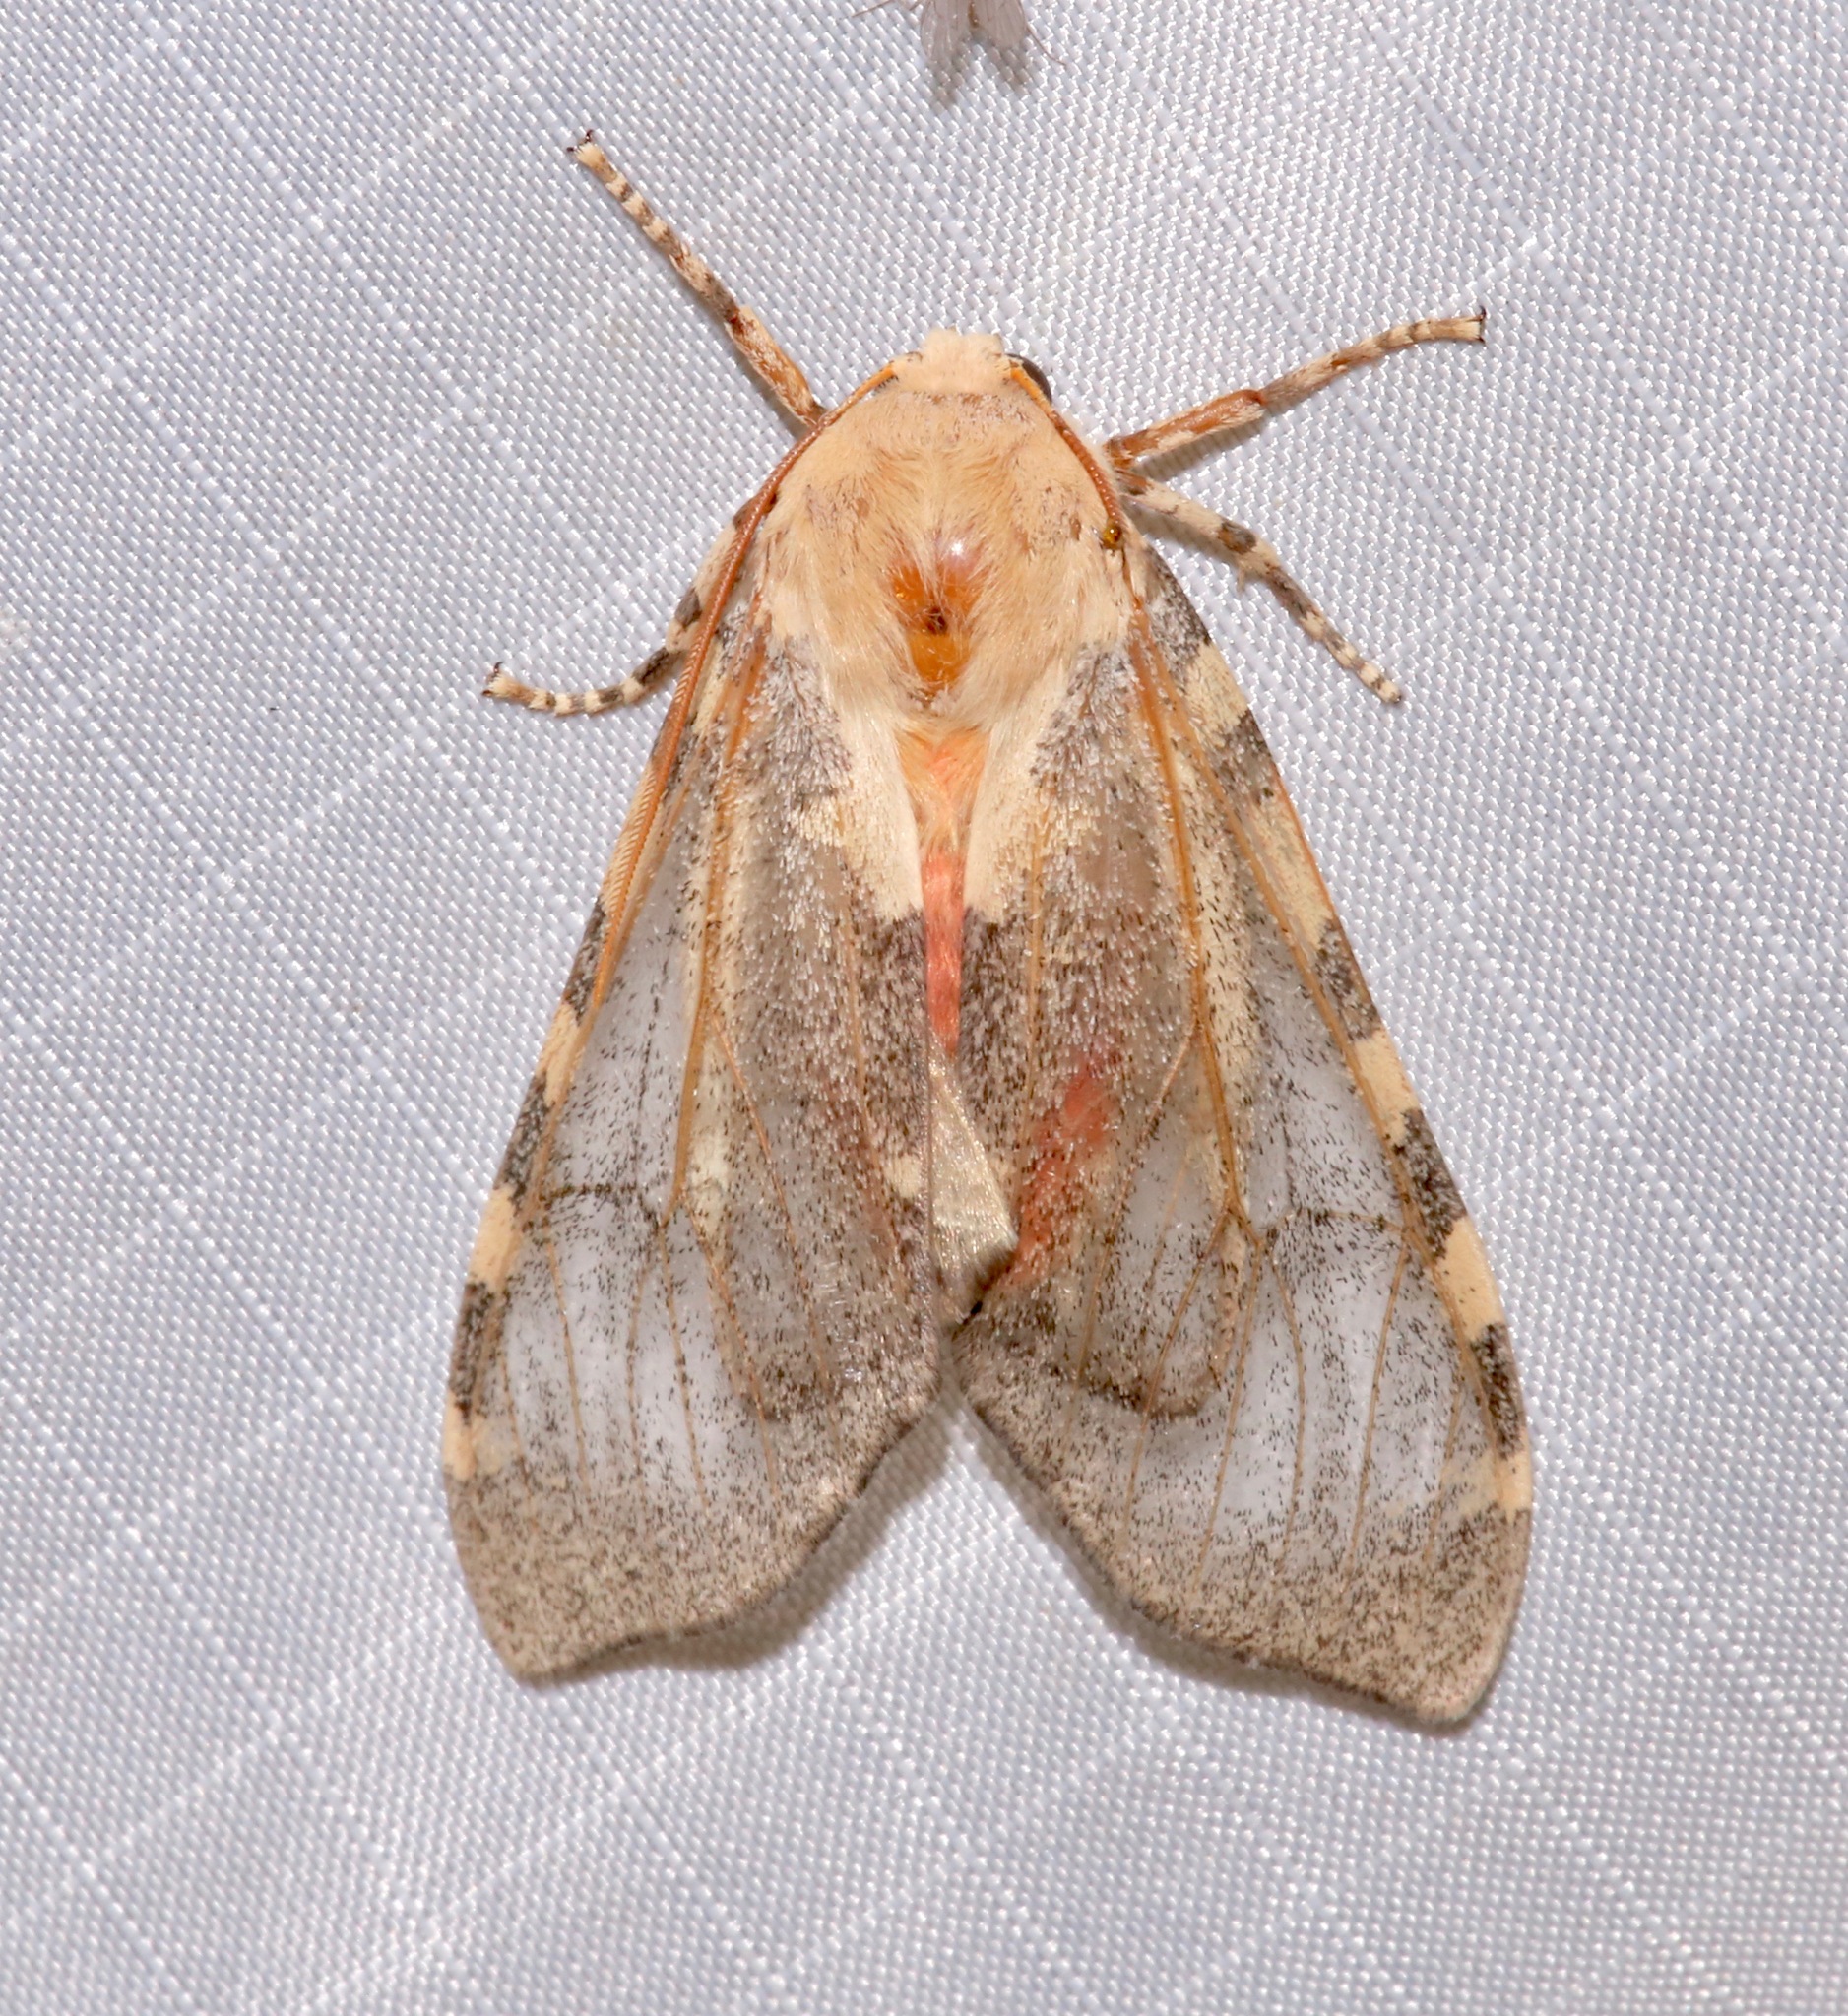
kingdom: Animalia
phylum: Arthropoda
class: Insecta
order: Lepidoptera
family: Erebidae
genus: Hemihyalea
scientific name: Hemihyalea edwardsii
